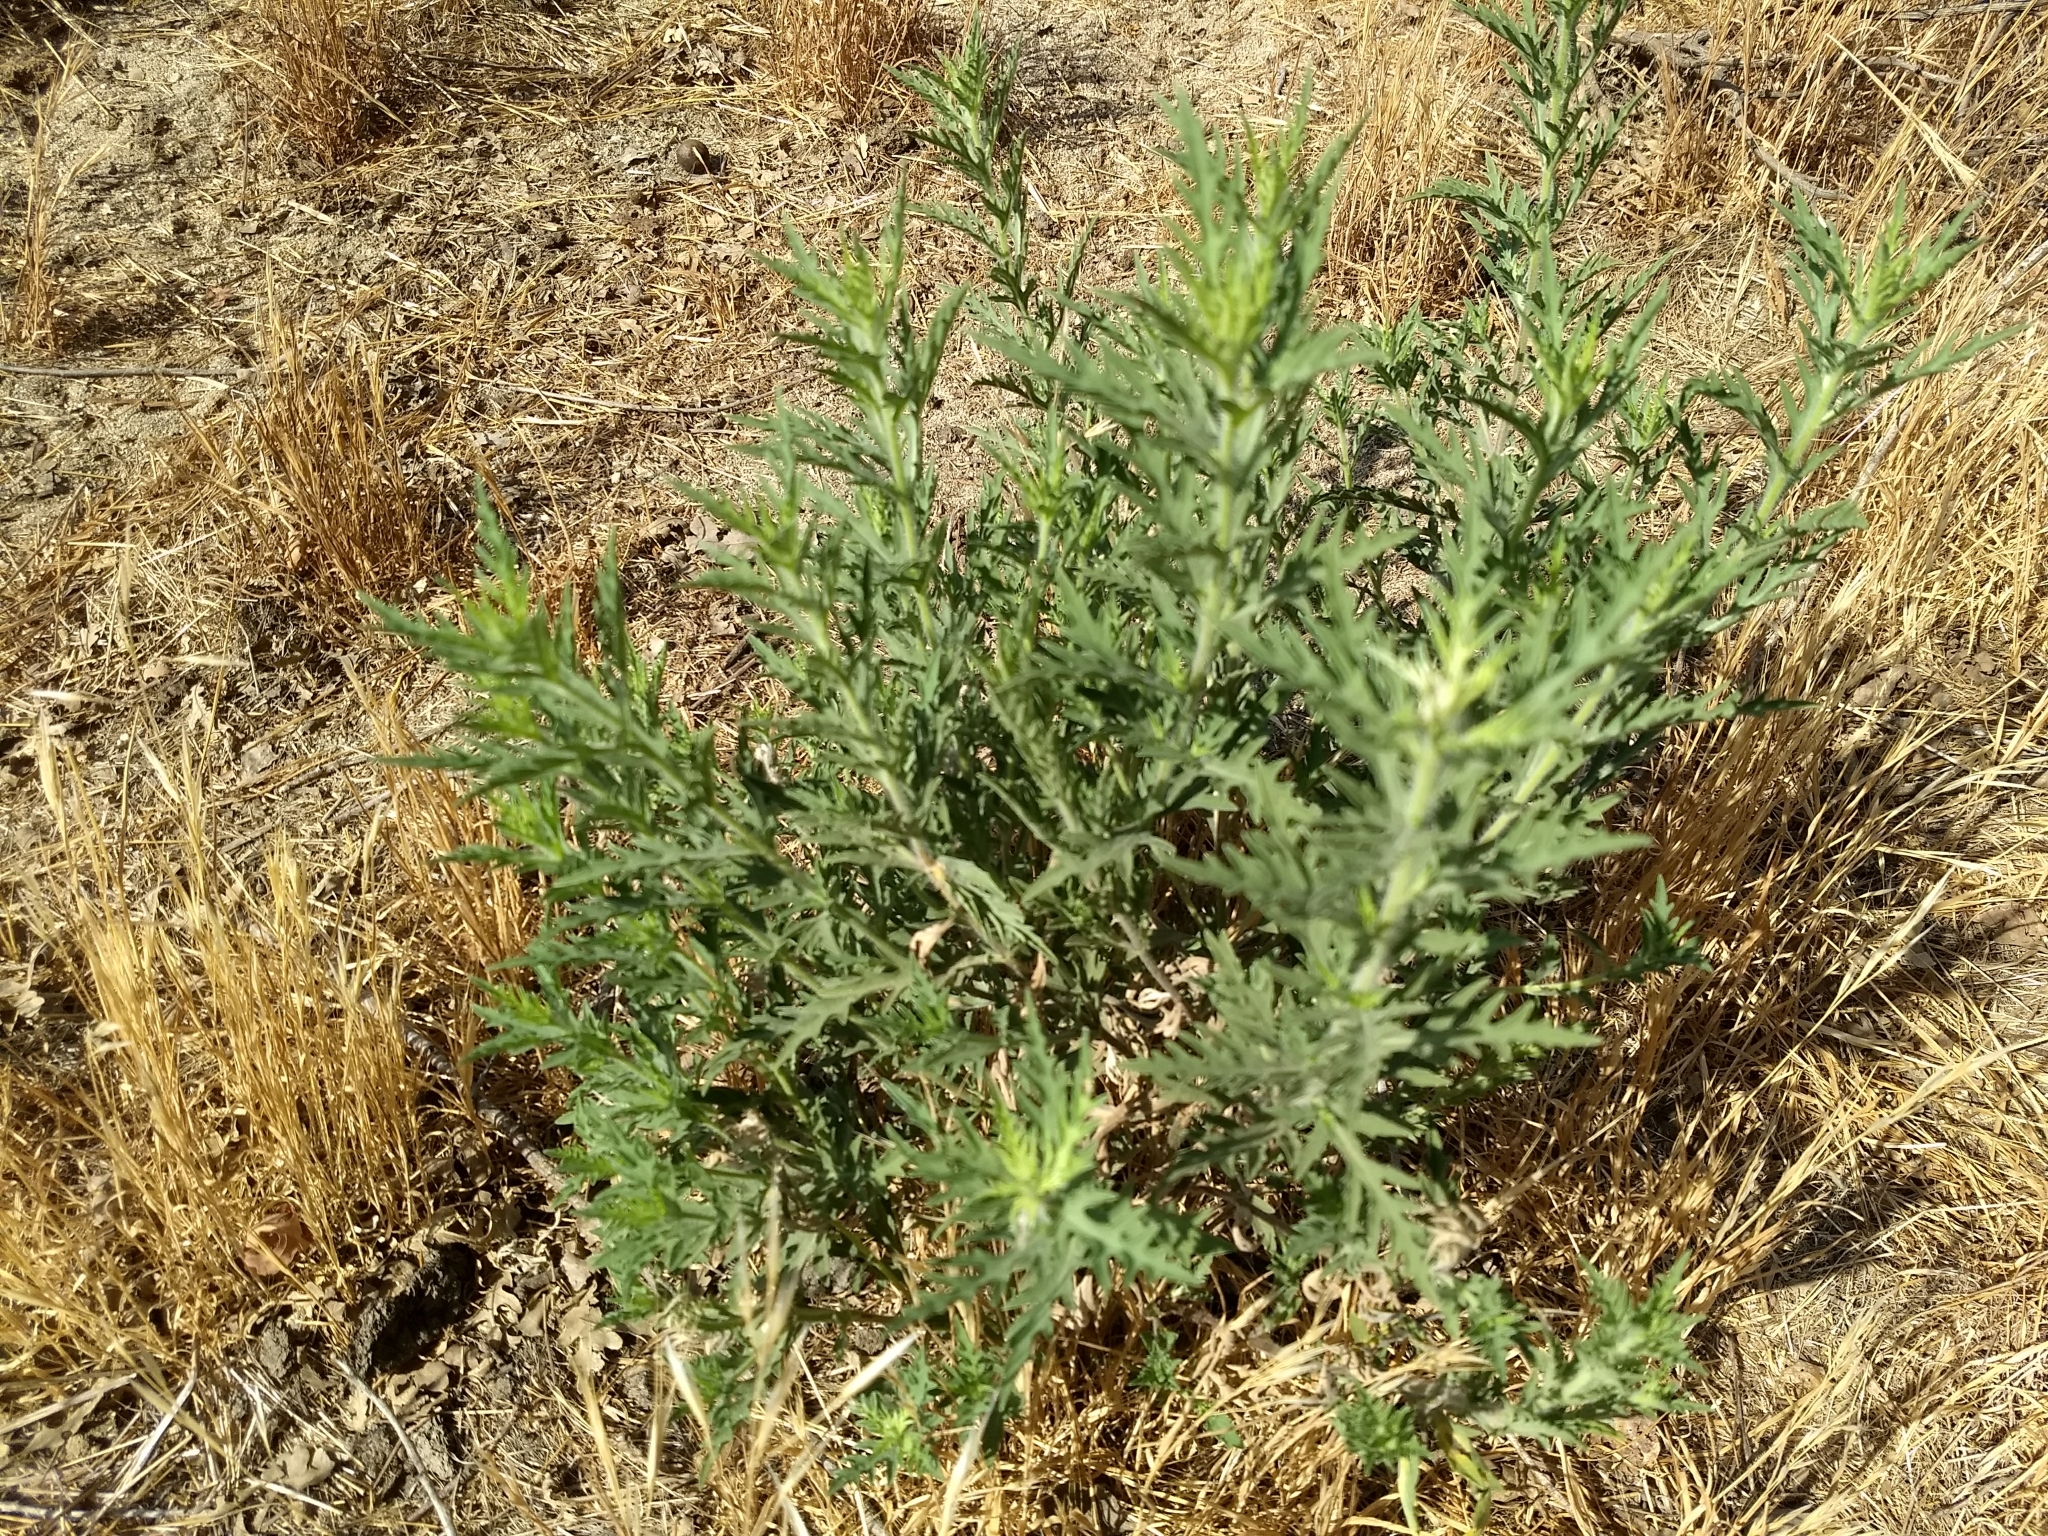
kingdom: Plantae
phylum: Tracheophyta
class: Magnoliopsida
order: Asterales
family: Asteraceae
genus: Ambrosia
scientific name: Ambrosia psilostachya
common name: Perennial ragweed
